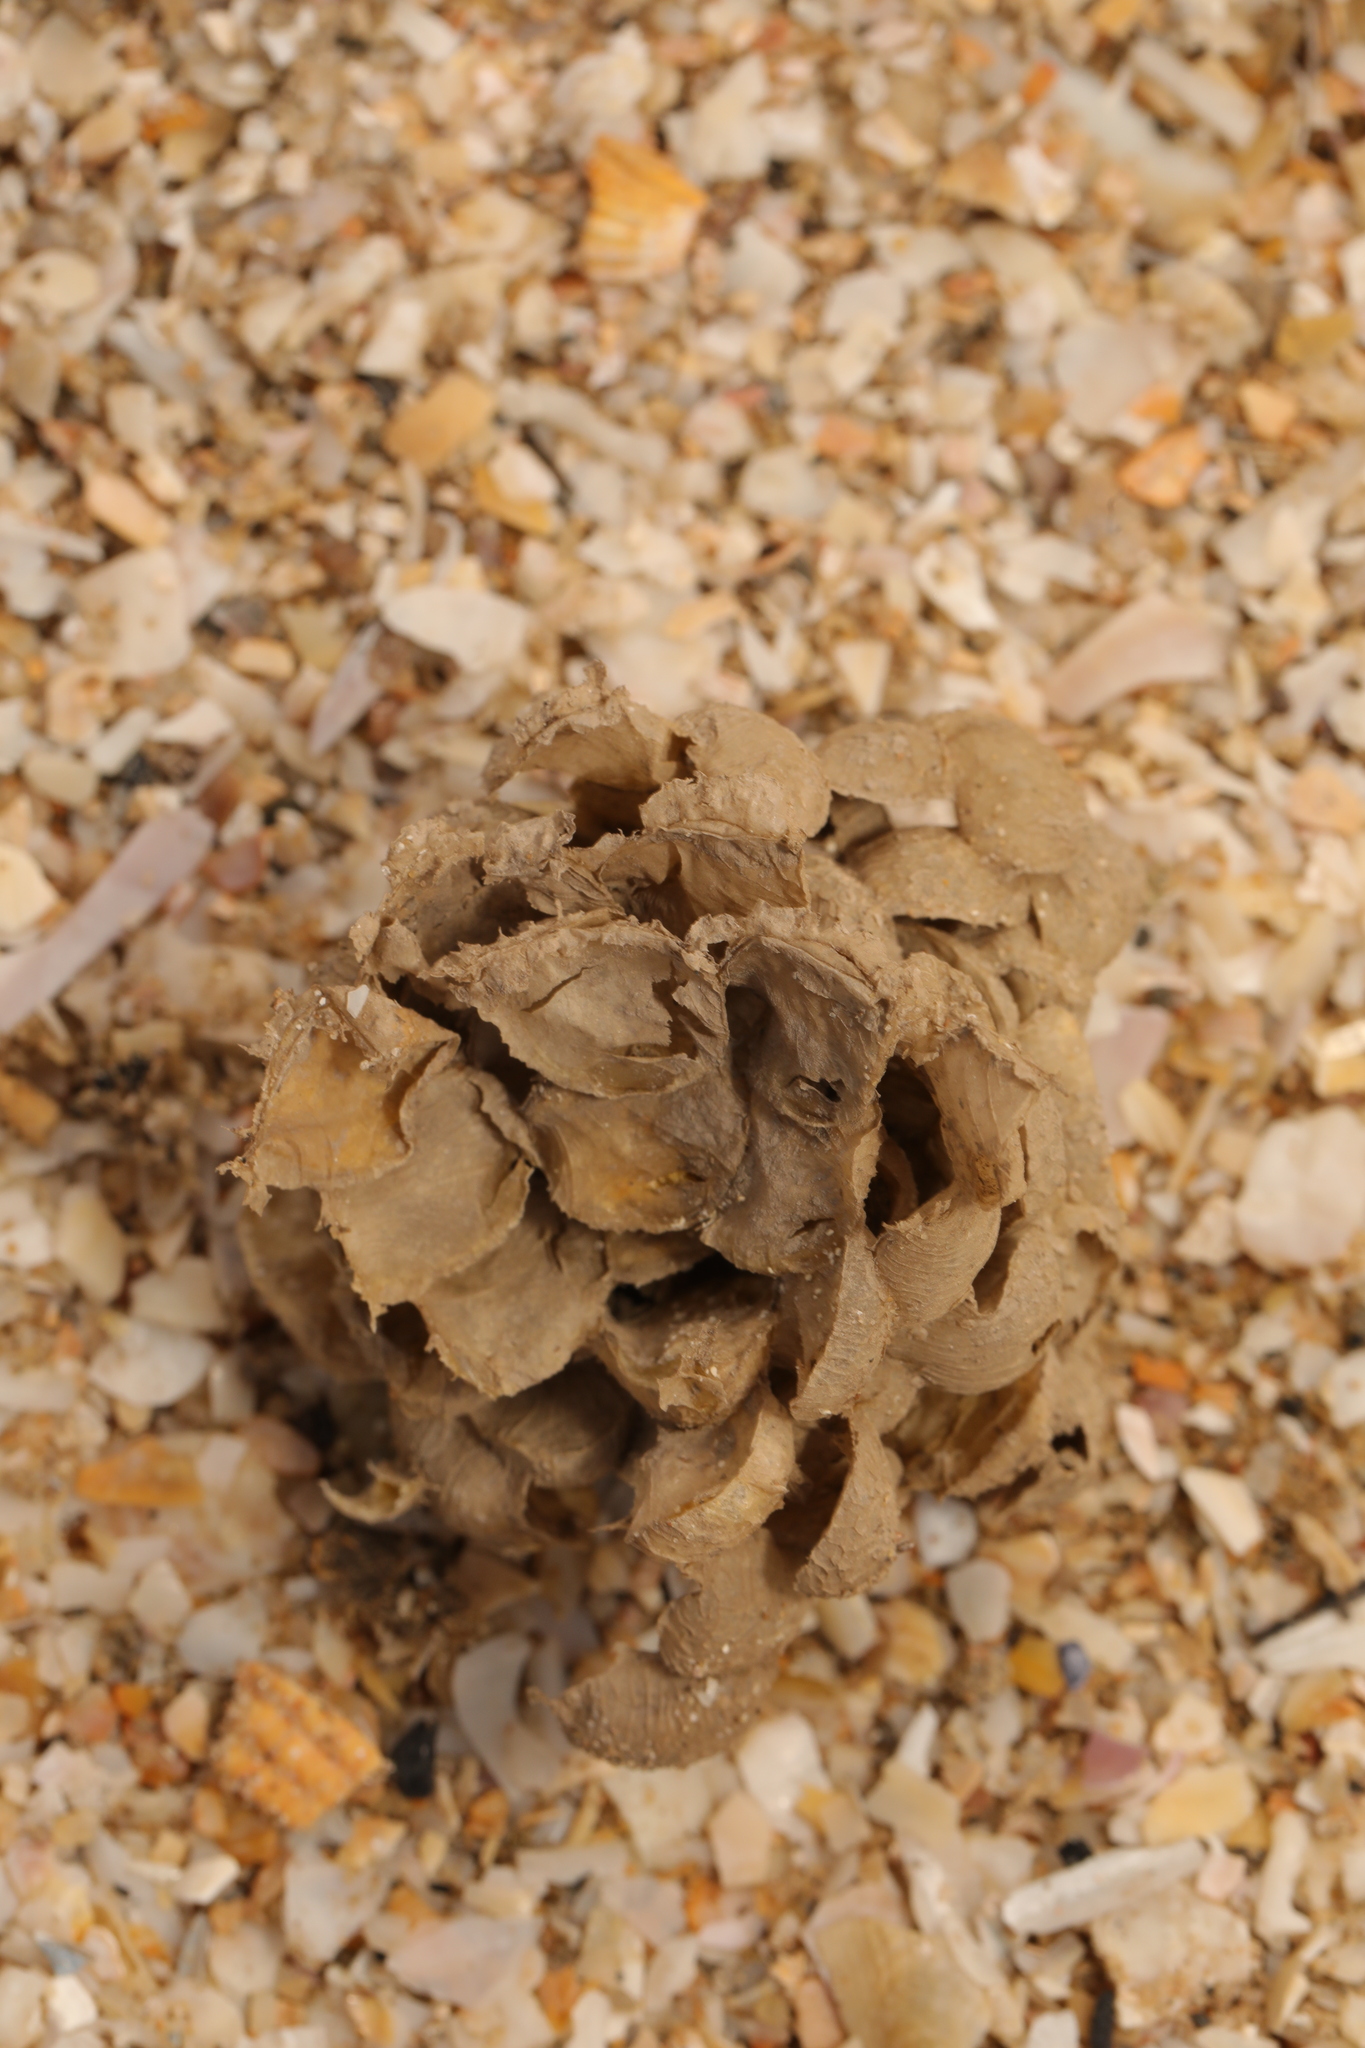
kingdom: Animalia
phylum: Mollusca
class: Gastropoda
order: Neogastropoda
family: Buccinidae
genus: Buccinum
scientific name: Buccinum undatum
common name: Common whelk
